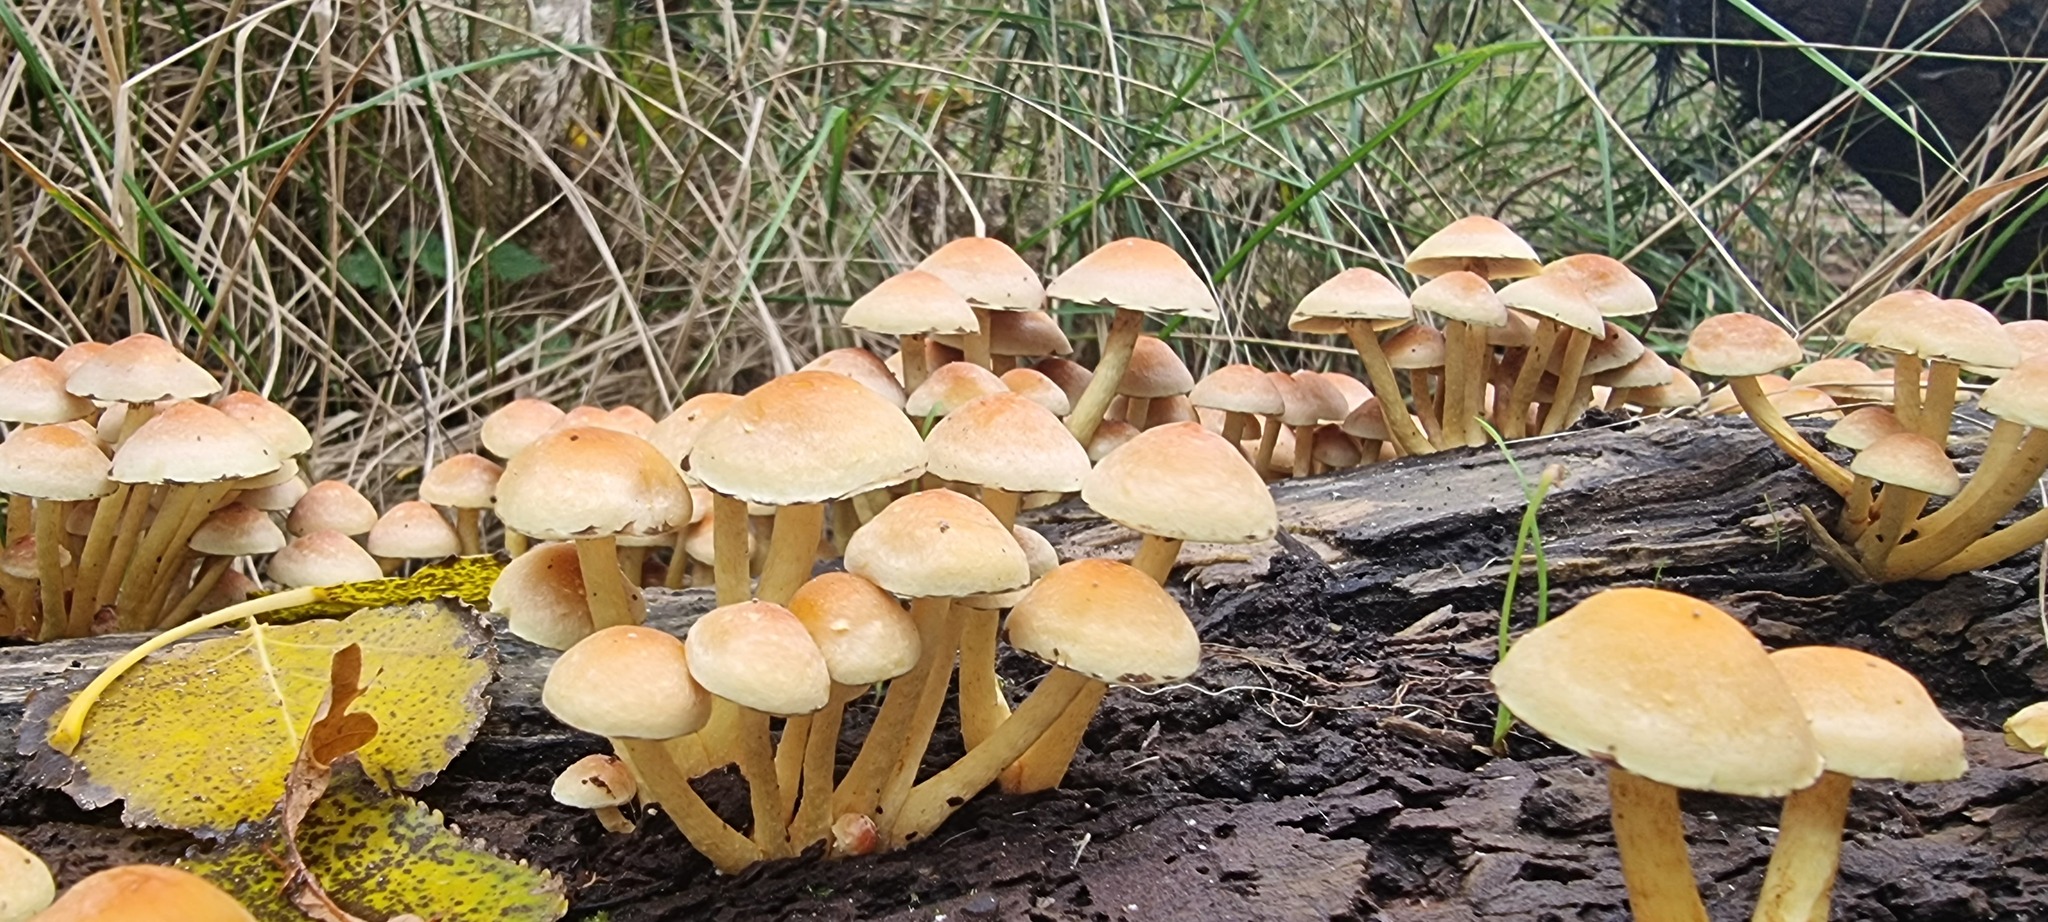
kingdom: Fungi
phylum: Basidiomycota
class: Agaricomycetes
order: Agaricales
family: Strophariaceae
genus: Hypholoma
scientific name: Hypholoma fasciculare
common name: Sulphur tuft
